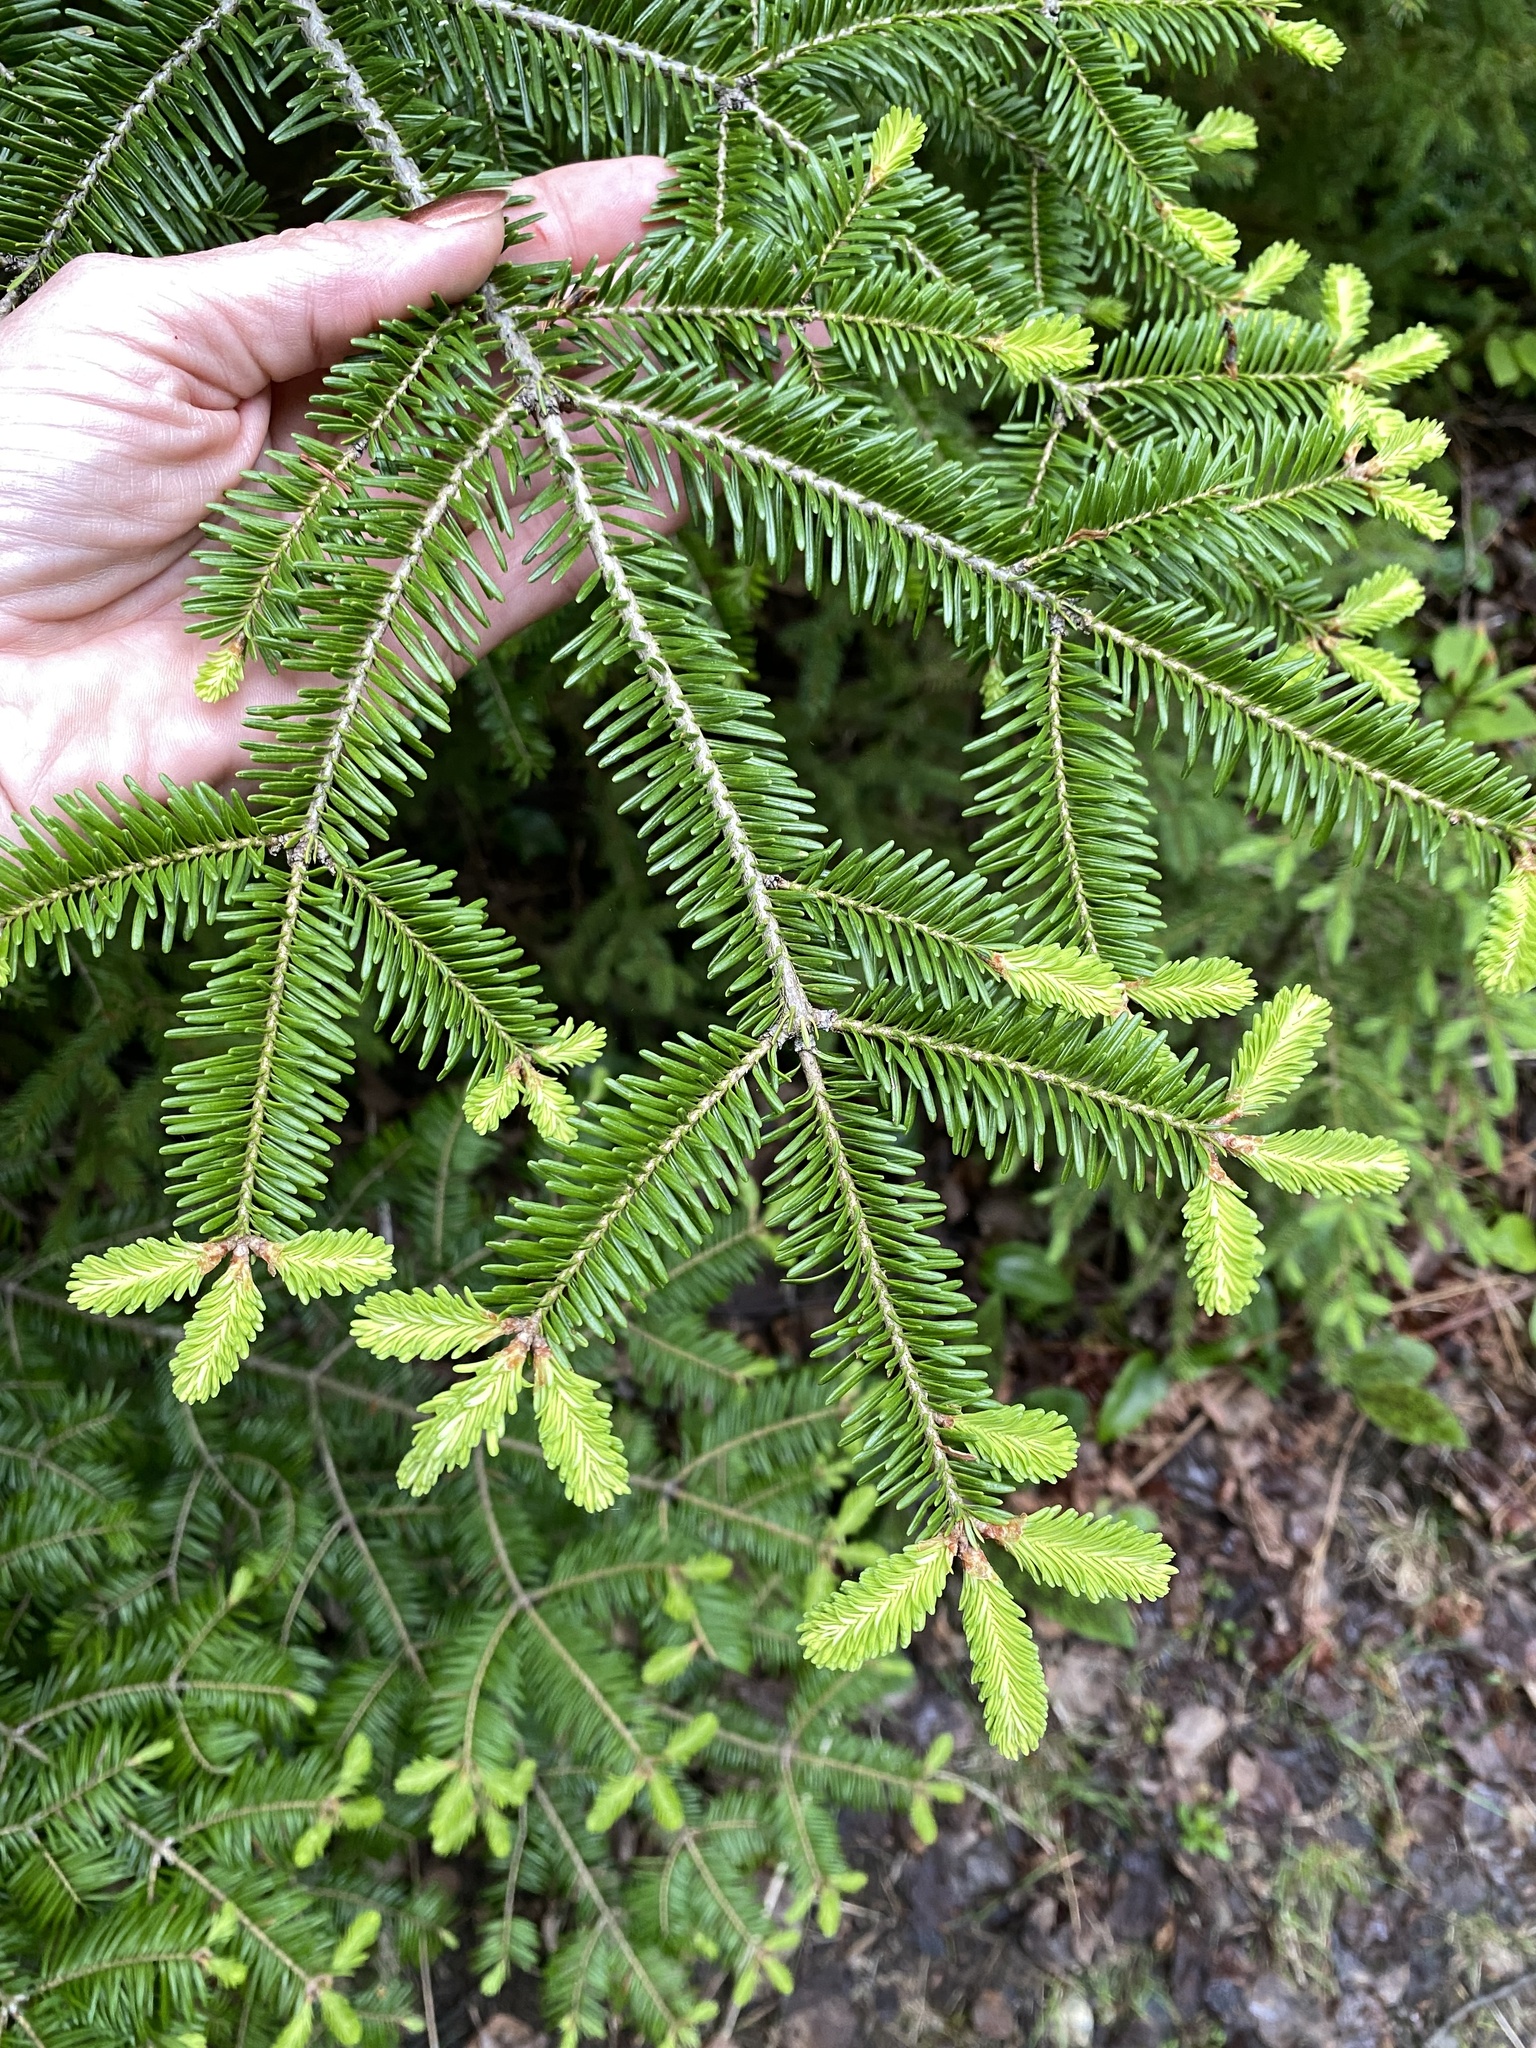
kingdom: Plantae
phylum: Tracheophyta
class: Pinopsida
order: Pinales
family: Pinaceae
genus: Abies
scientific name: Abies balsamea
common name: Balsam fir
